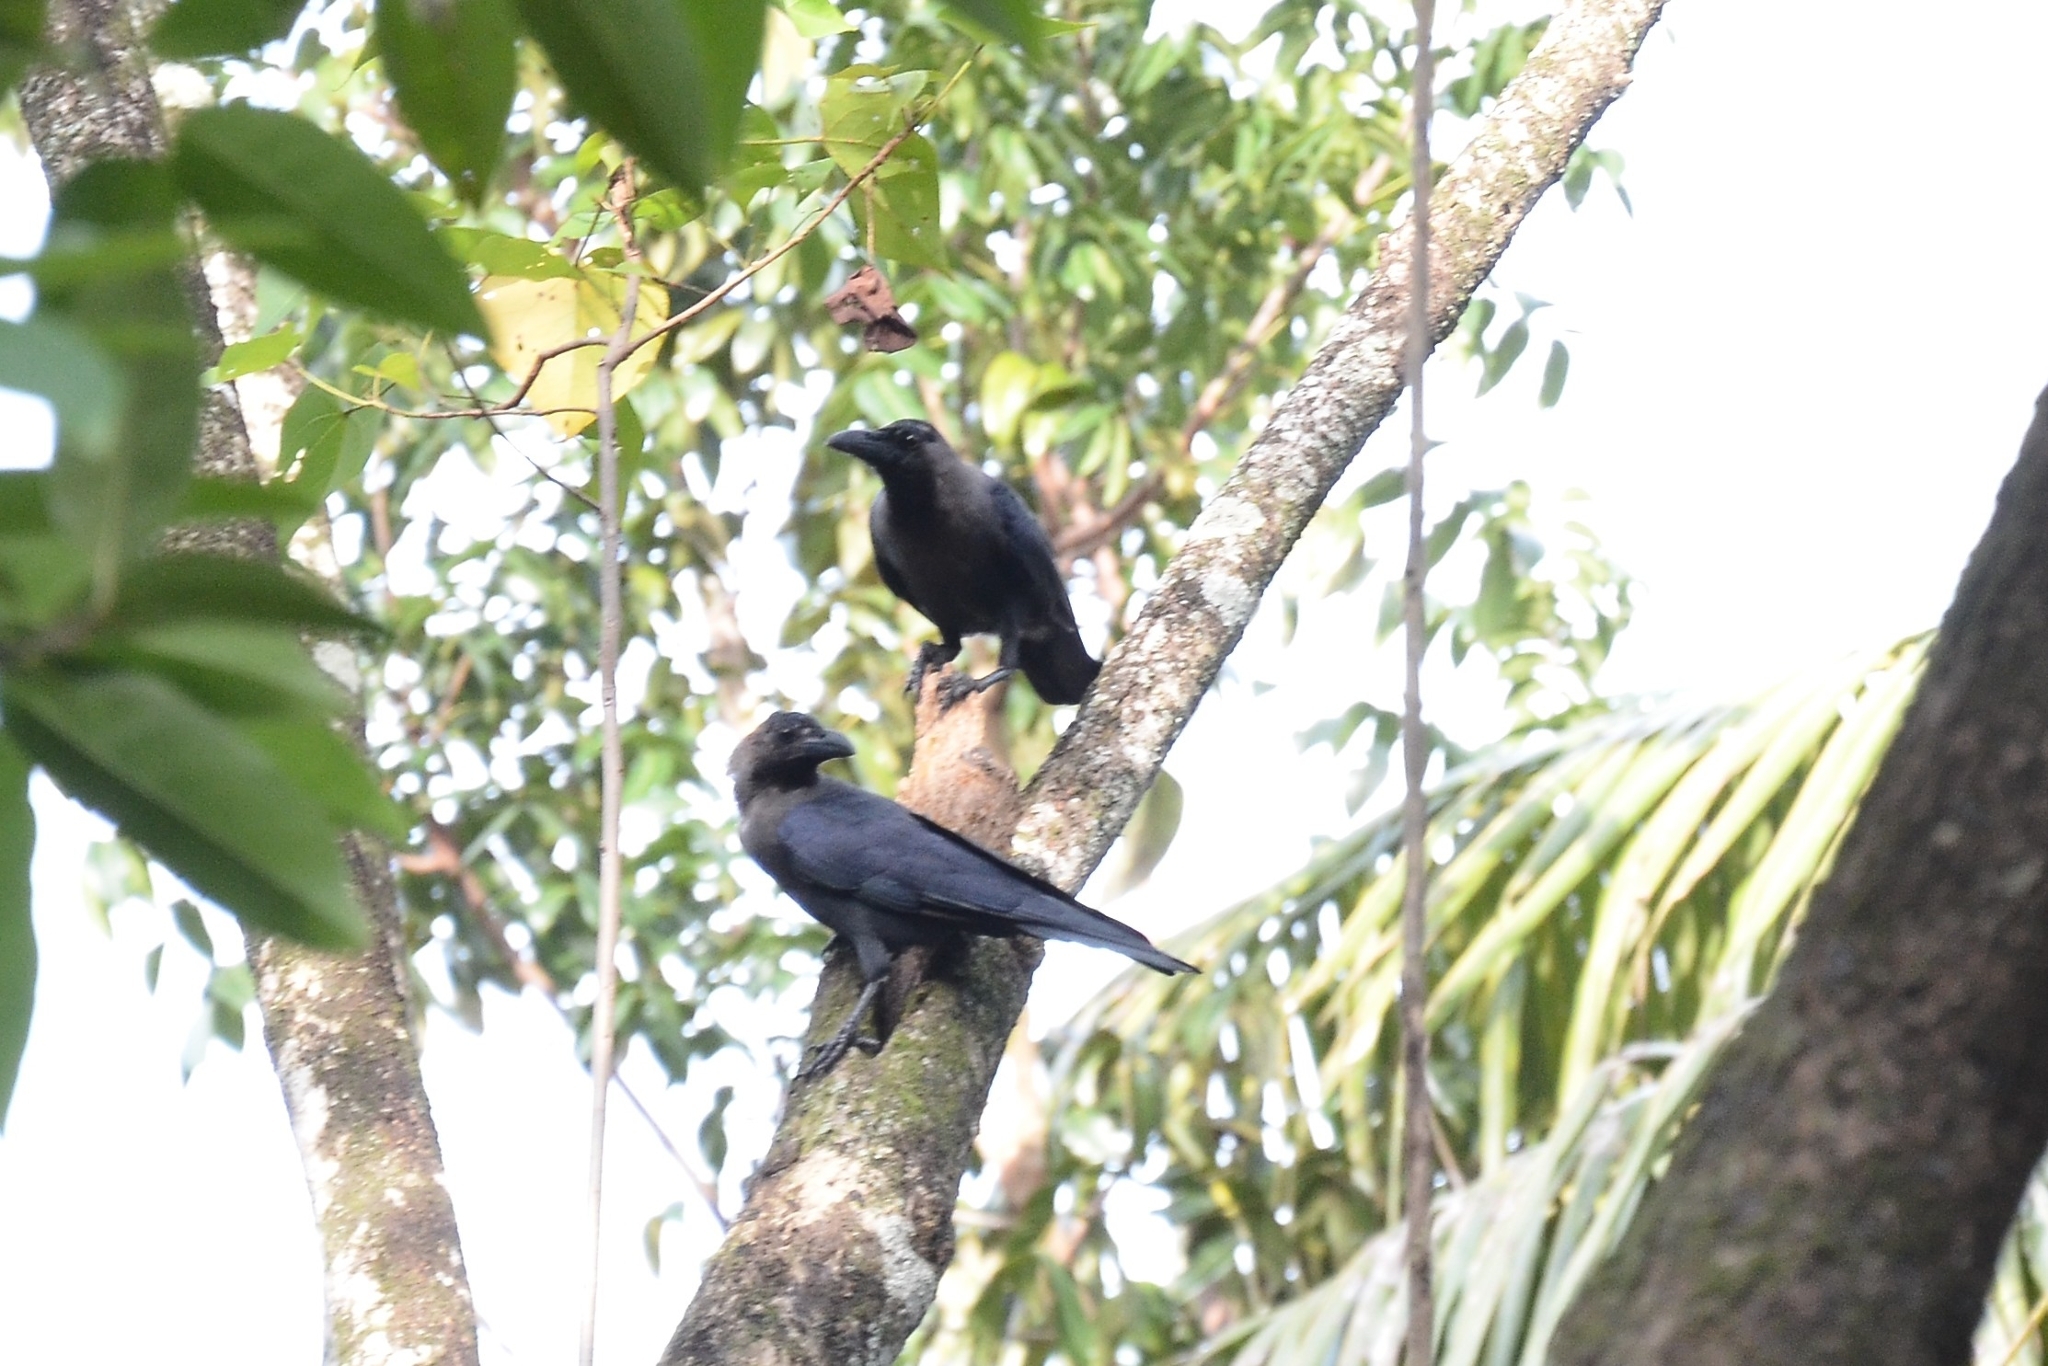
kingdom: Animalia
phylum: Chordata
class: Aves
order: Passeriformes
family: Corvidae
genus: Corvus
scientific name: Corvus splendens
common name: House crow
